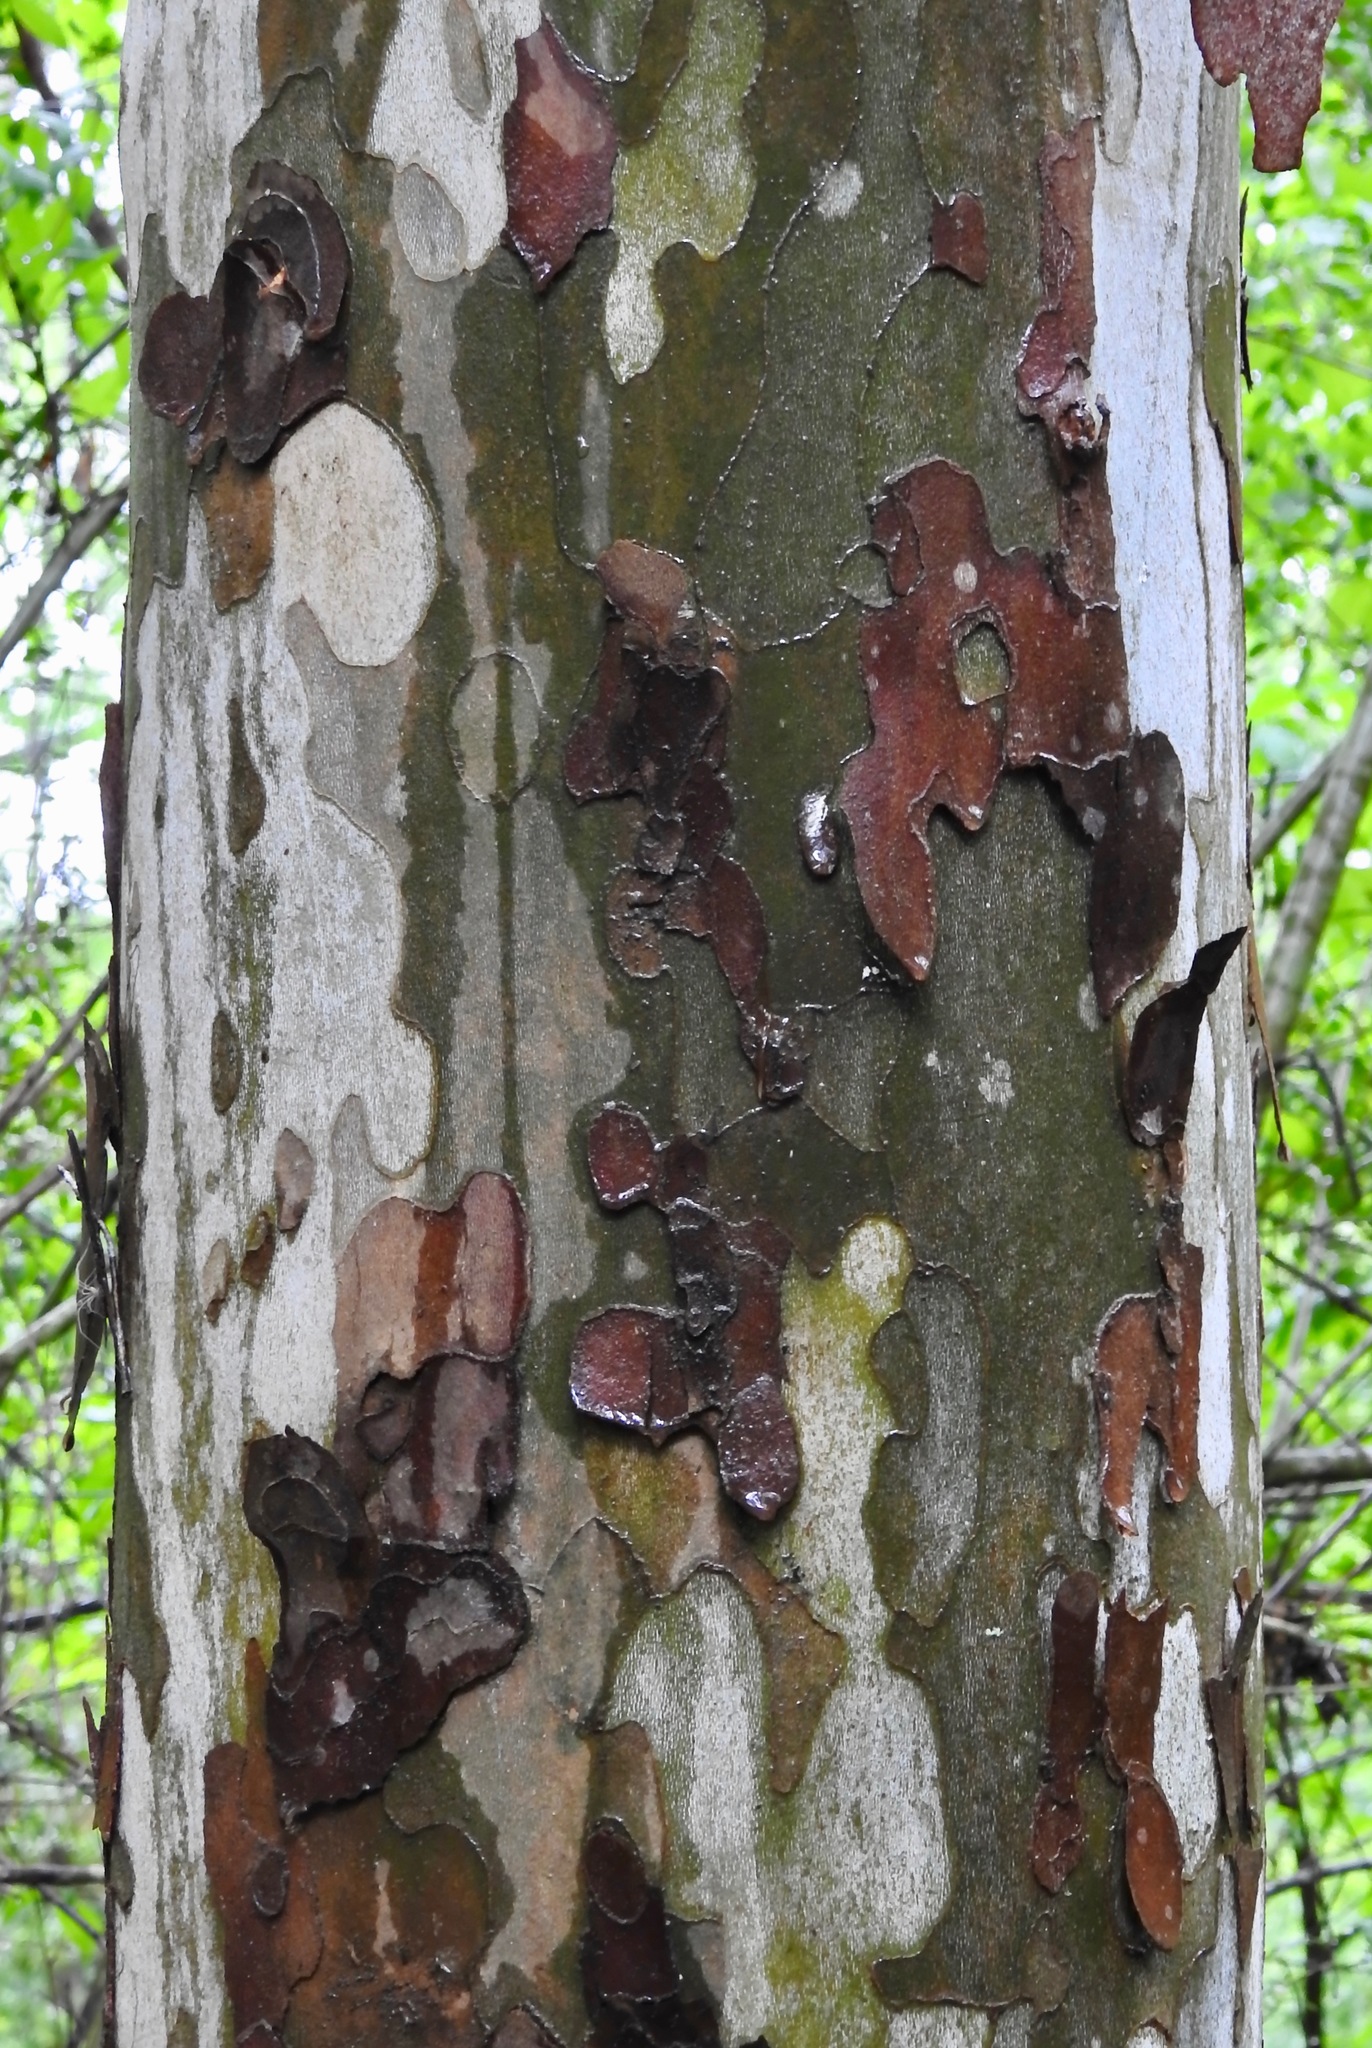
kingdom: Plantae
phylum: Tracheophyta
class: Magnoliopsida
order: Proteales
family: Platanaceae
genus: Platanus
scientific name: Platanus occidentalis
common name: American sycamore
